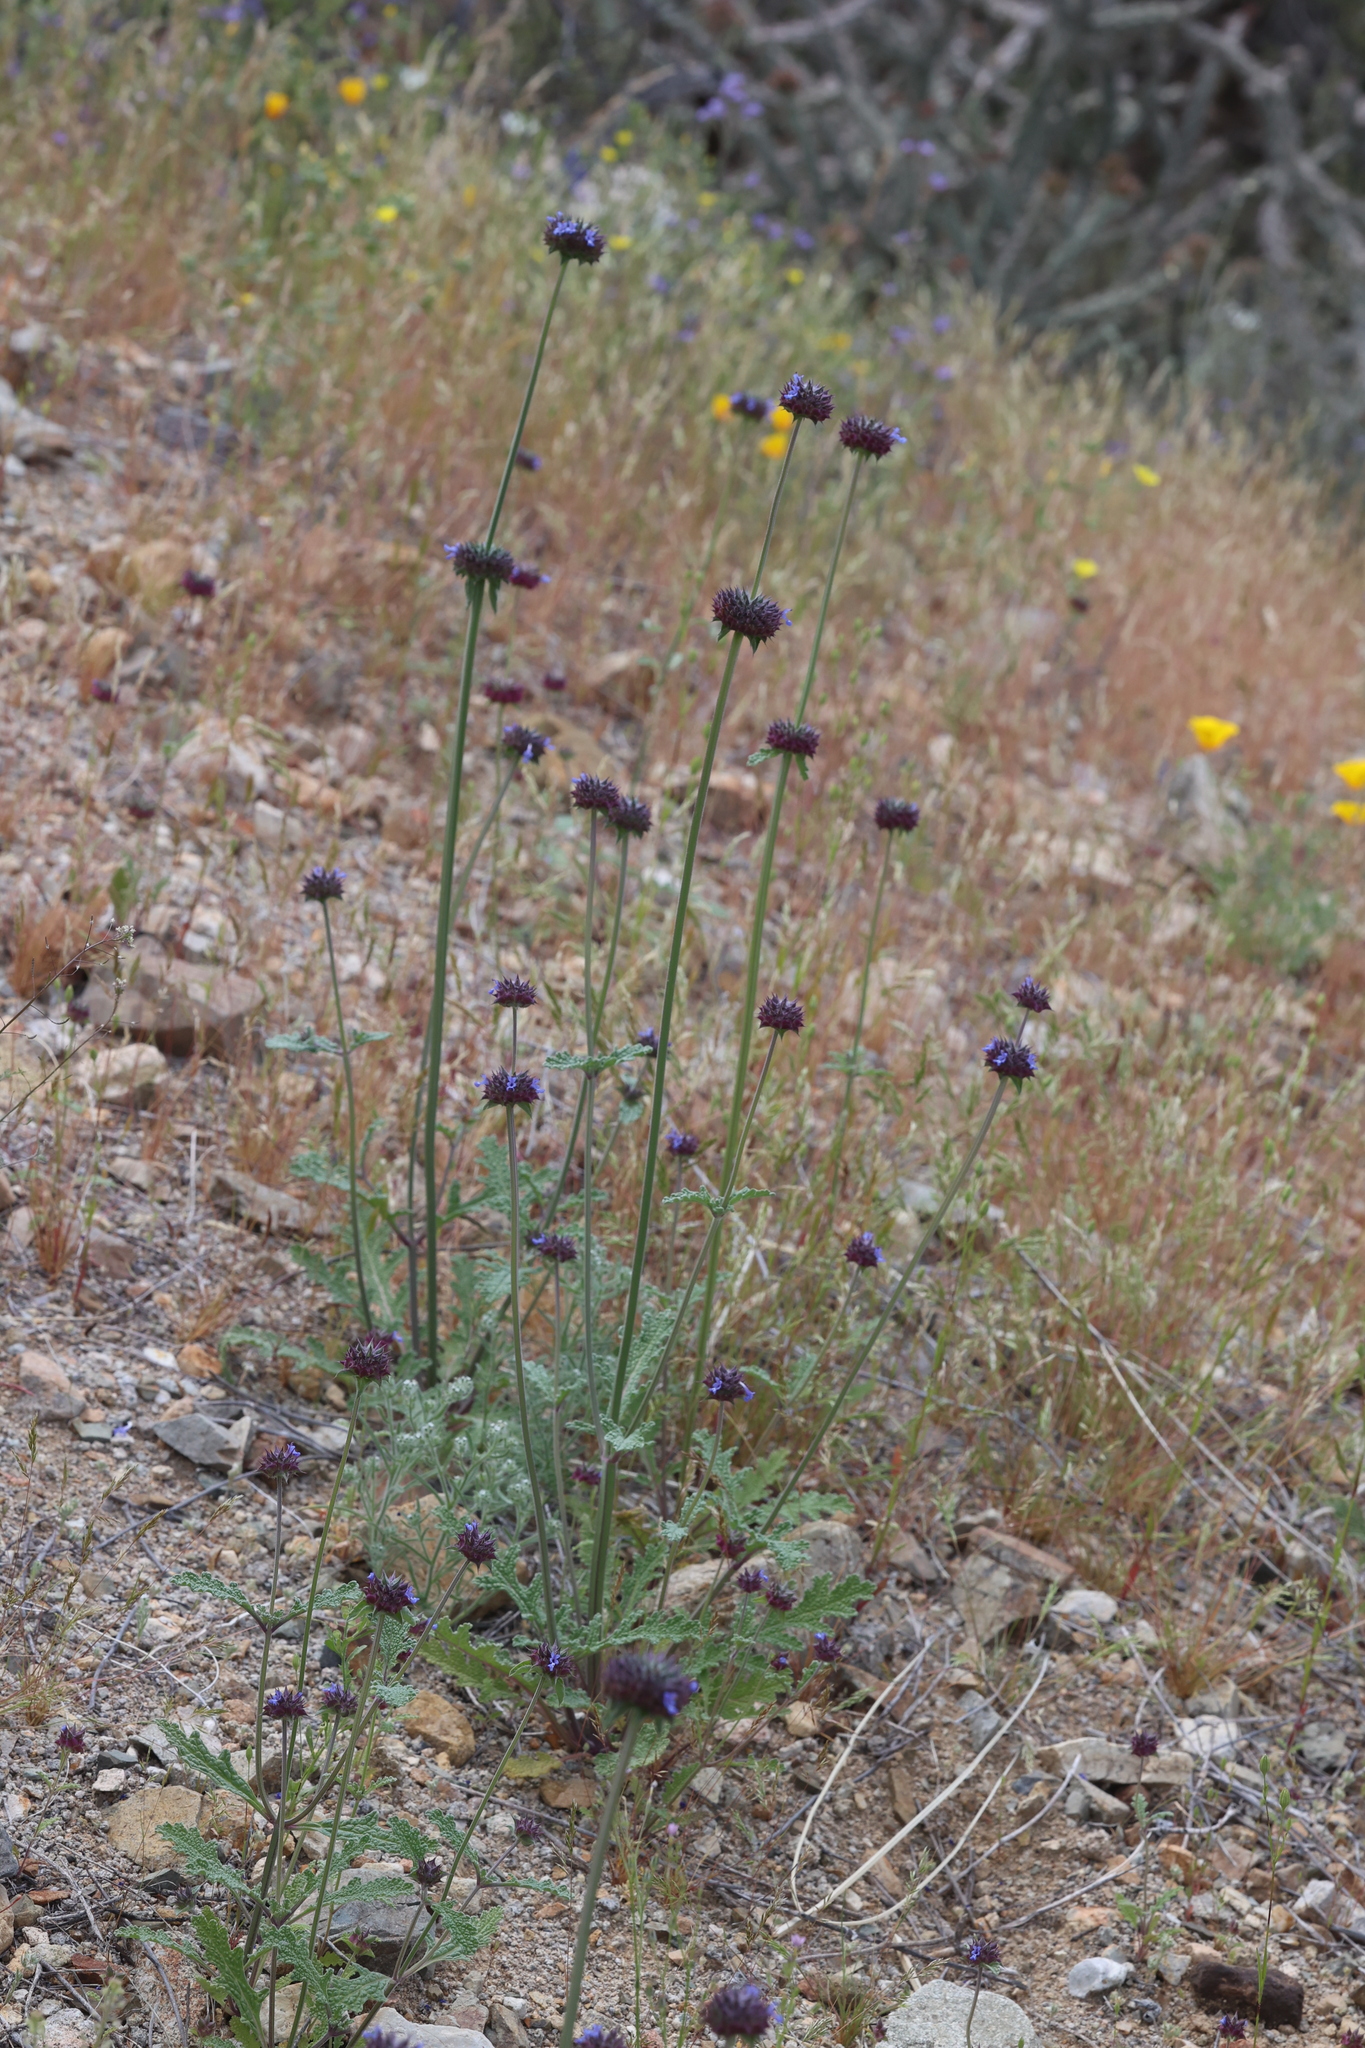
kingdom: Plantae
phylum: Tracheophyta
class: Magnoliopsida
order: Lamiales
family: Lamiaceae
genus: Salvia
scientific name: Salvia columbariae
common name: Chia
